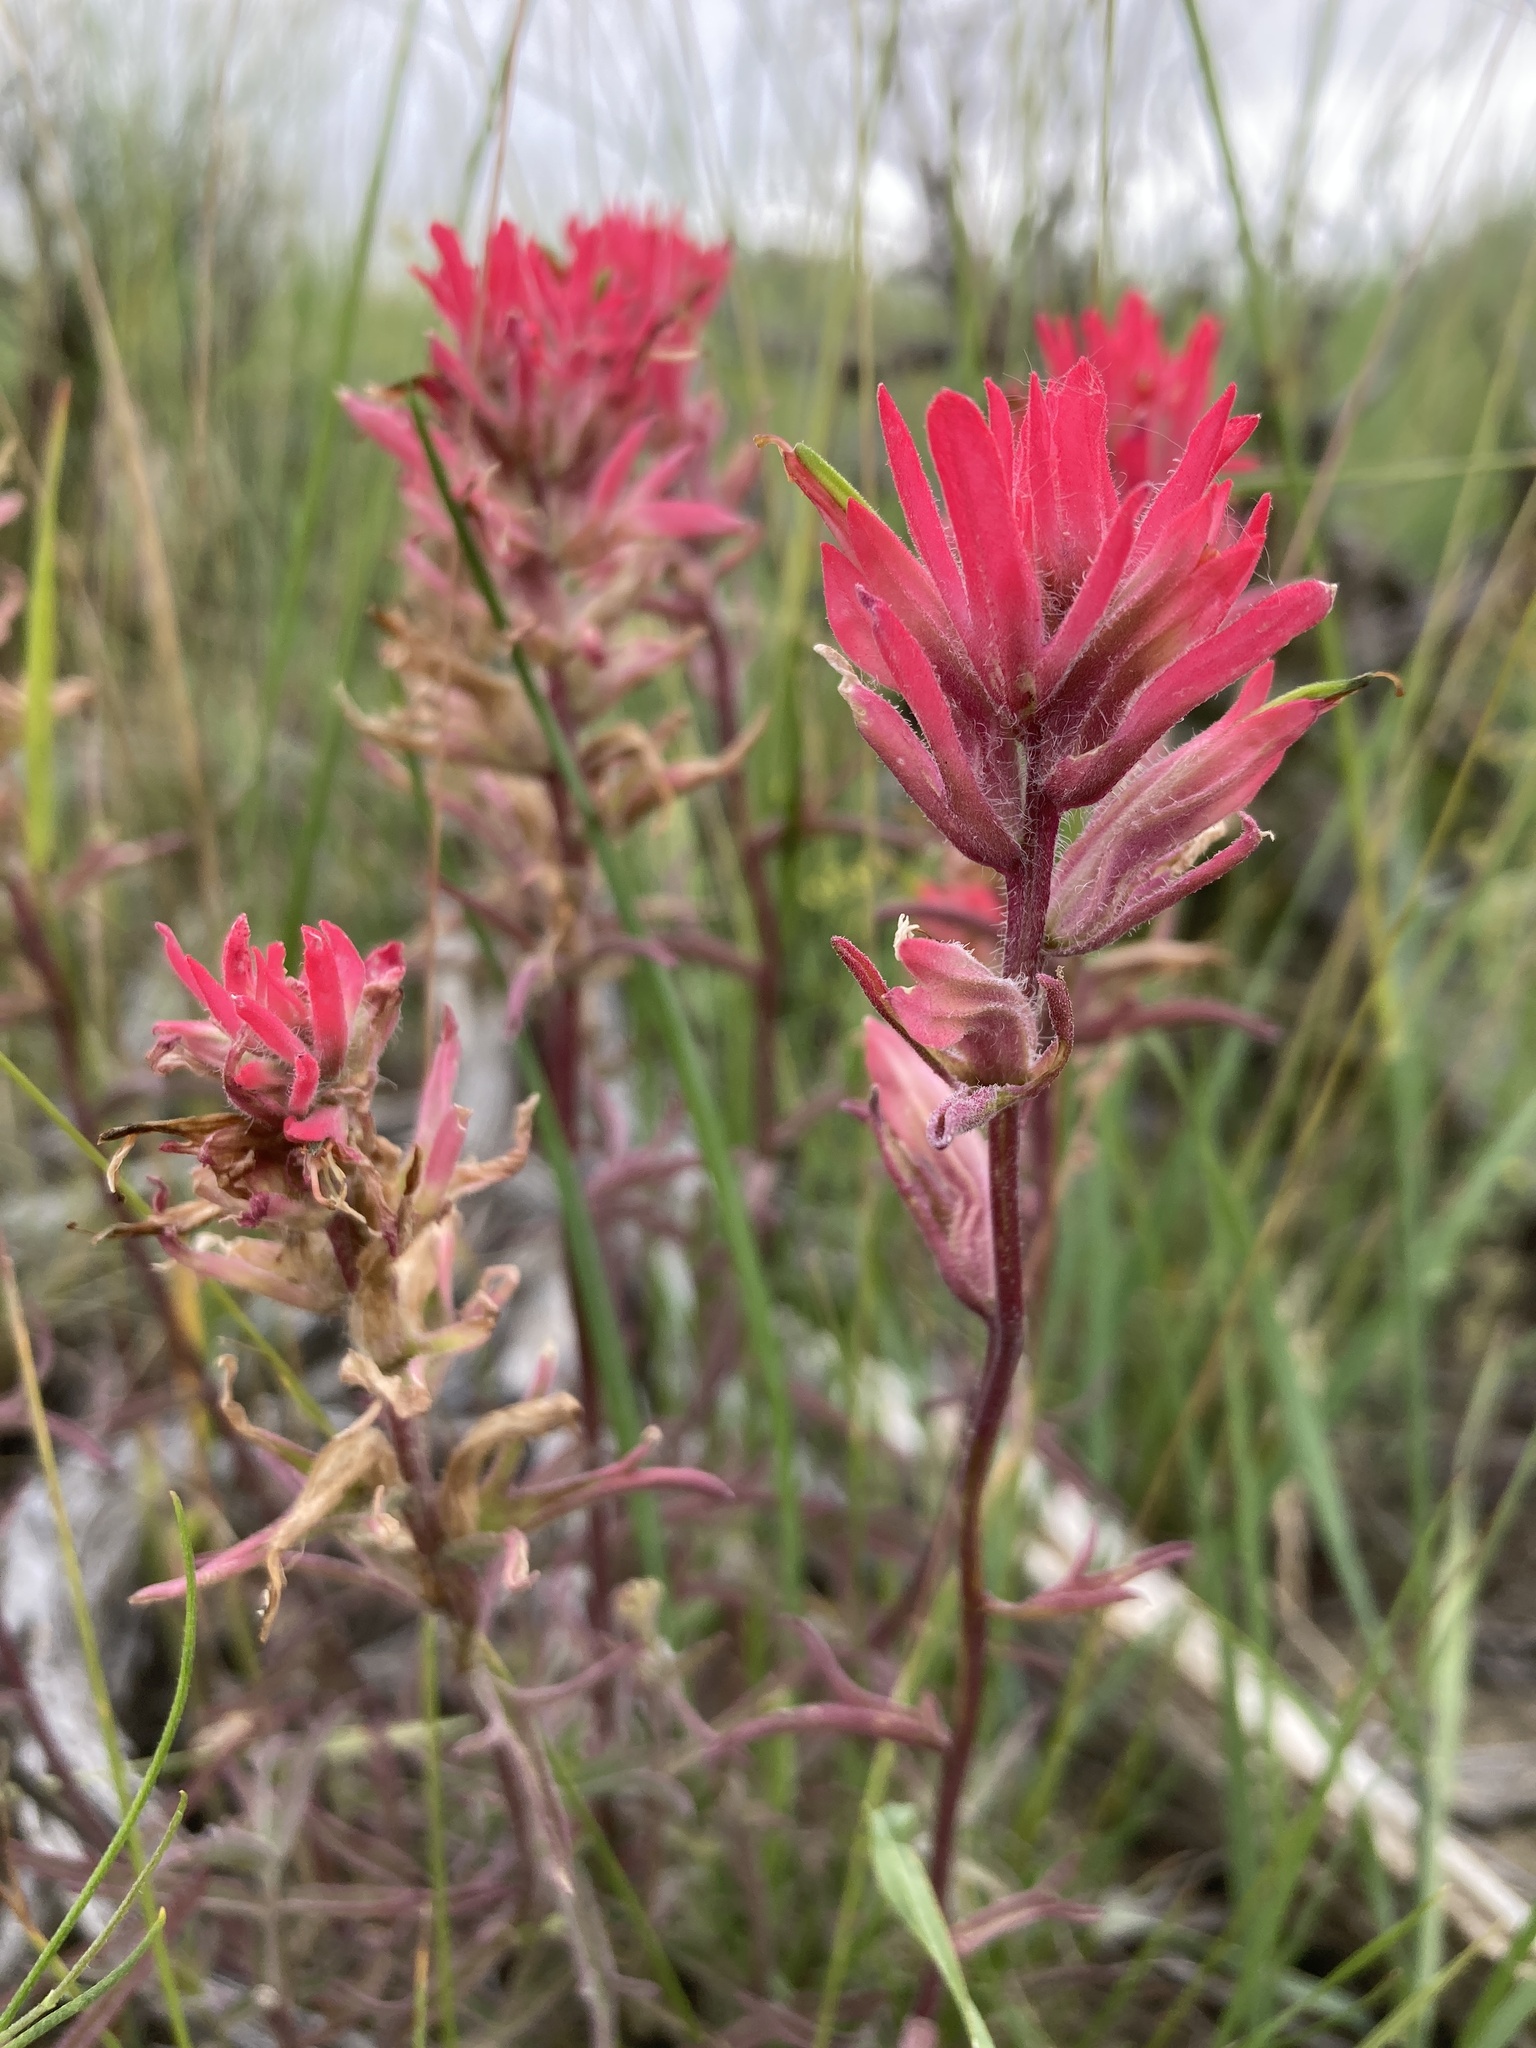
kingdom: Plantae
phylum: Tracheophyta
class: Magnoliopsida
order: Lamiales
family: Orobanchaceae
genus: Castilleja
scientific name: Castilleja angustifolia
